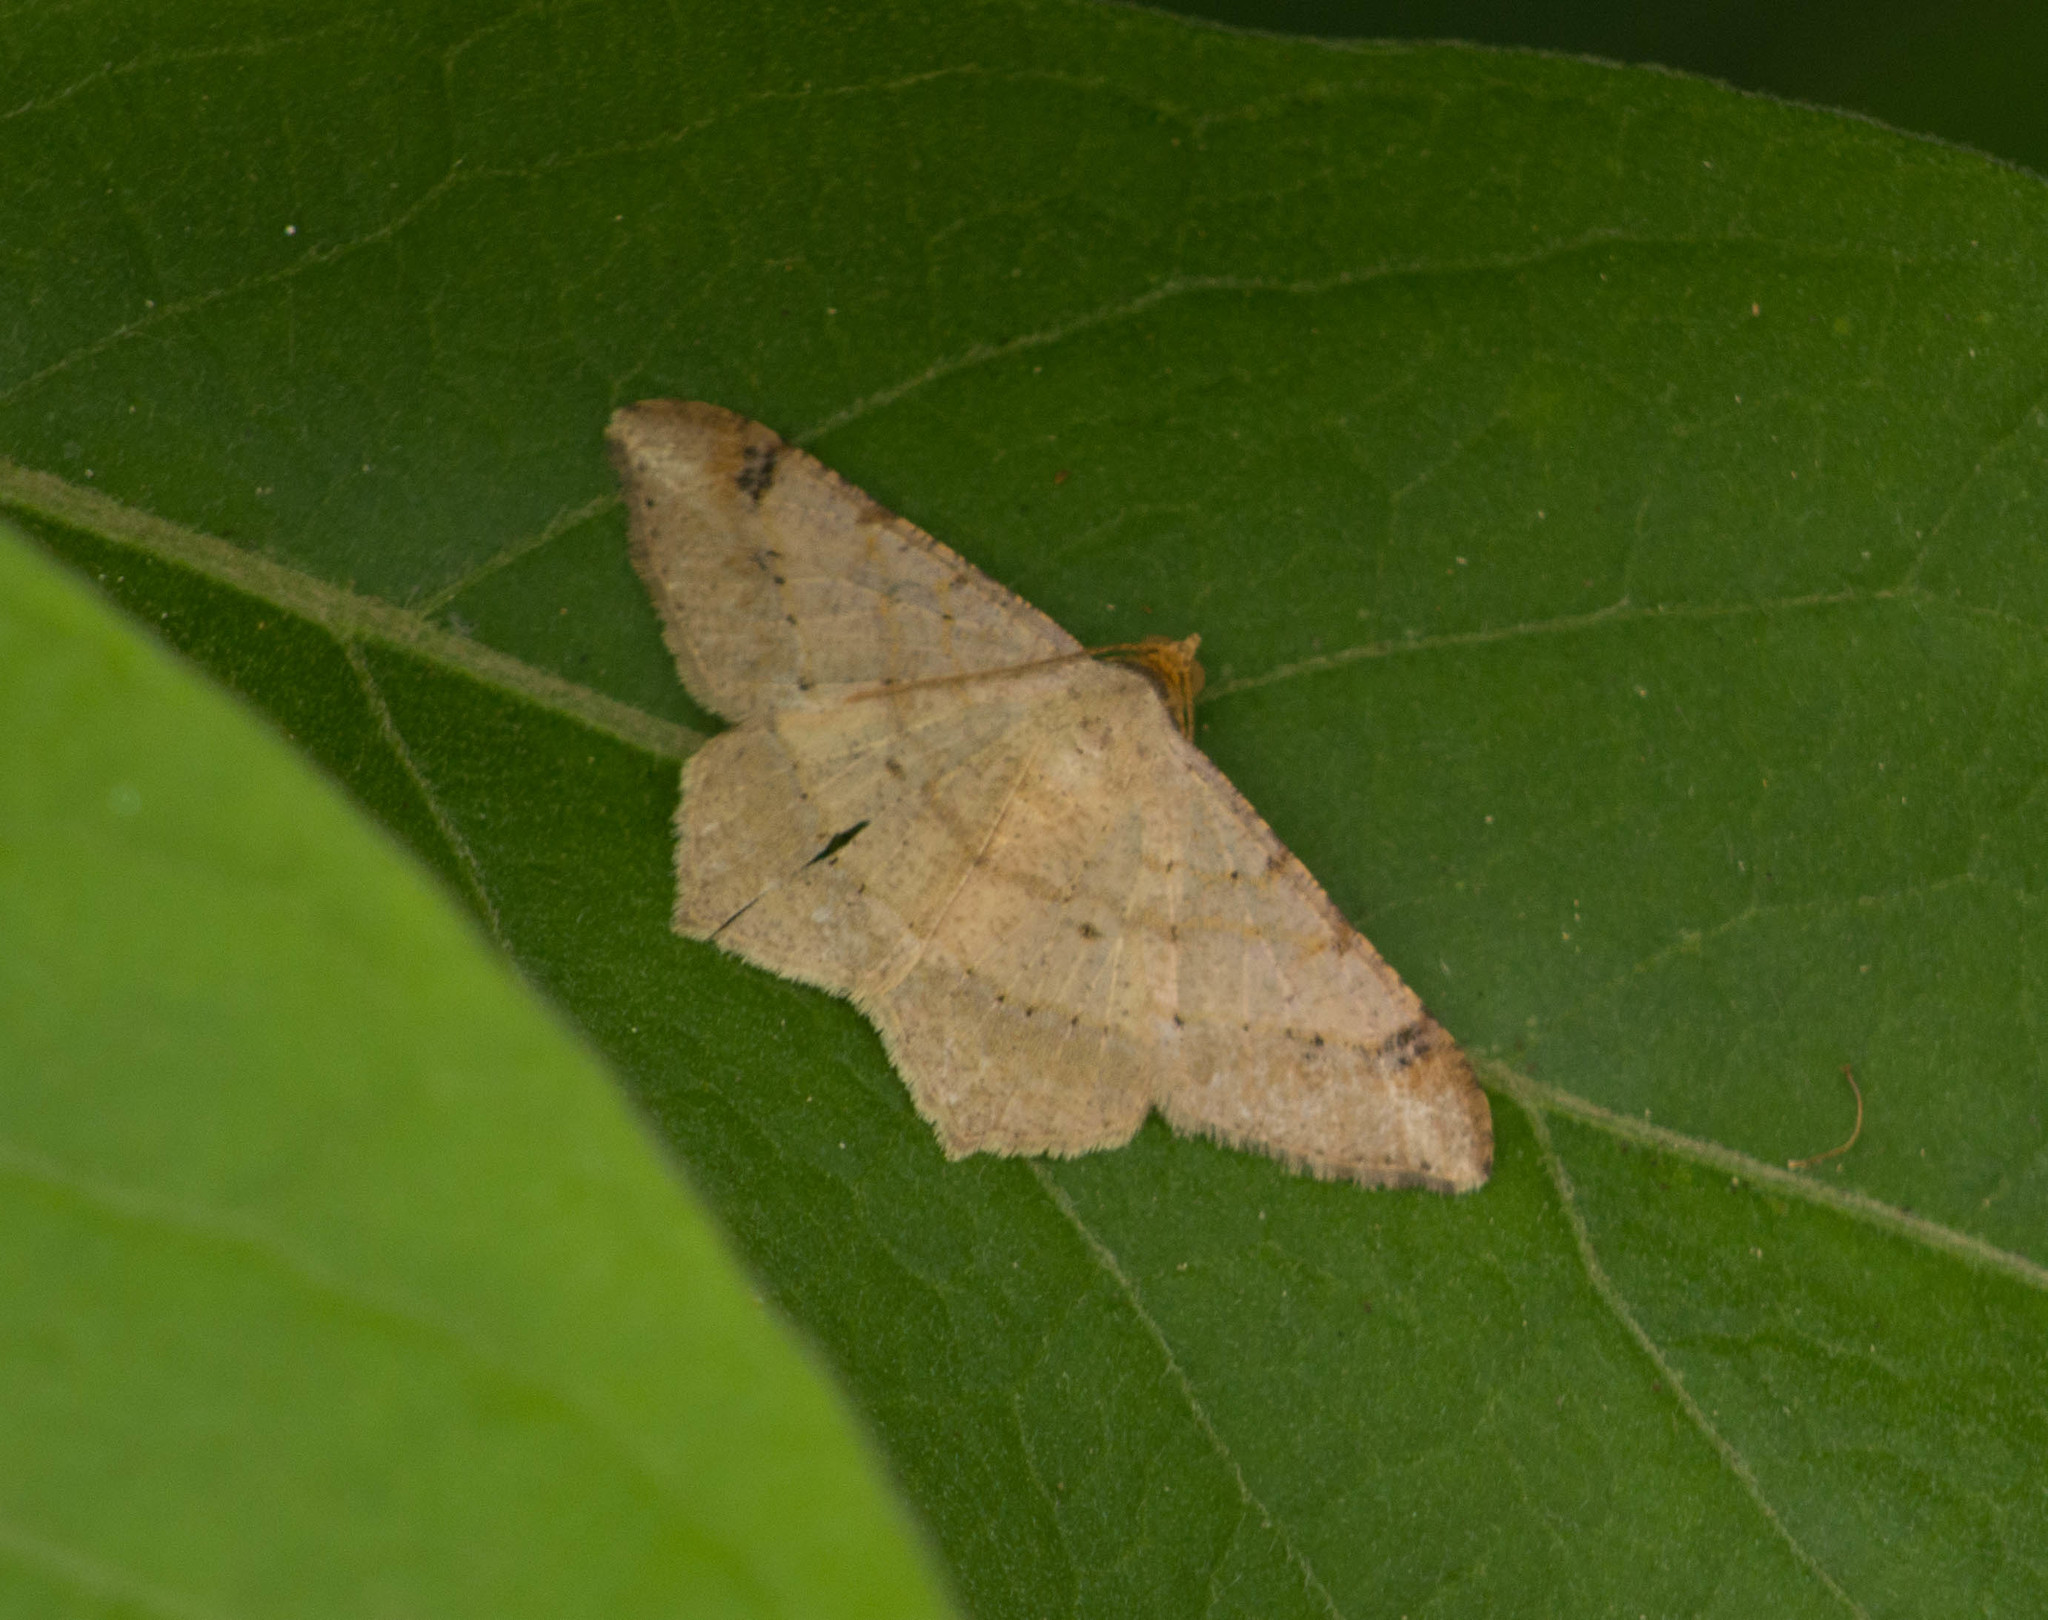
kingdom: Animalia
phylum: Arthropoda
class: Insecta
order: Lepidoptera
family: Geometridae
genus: Macaria
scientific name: Macaria abydata
